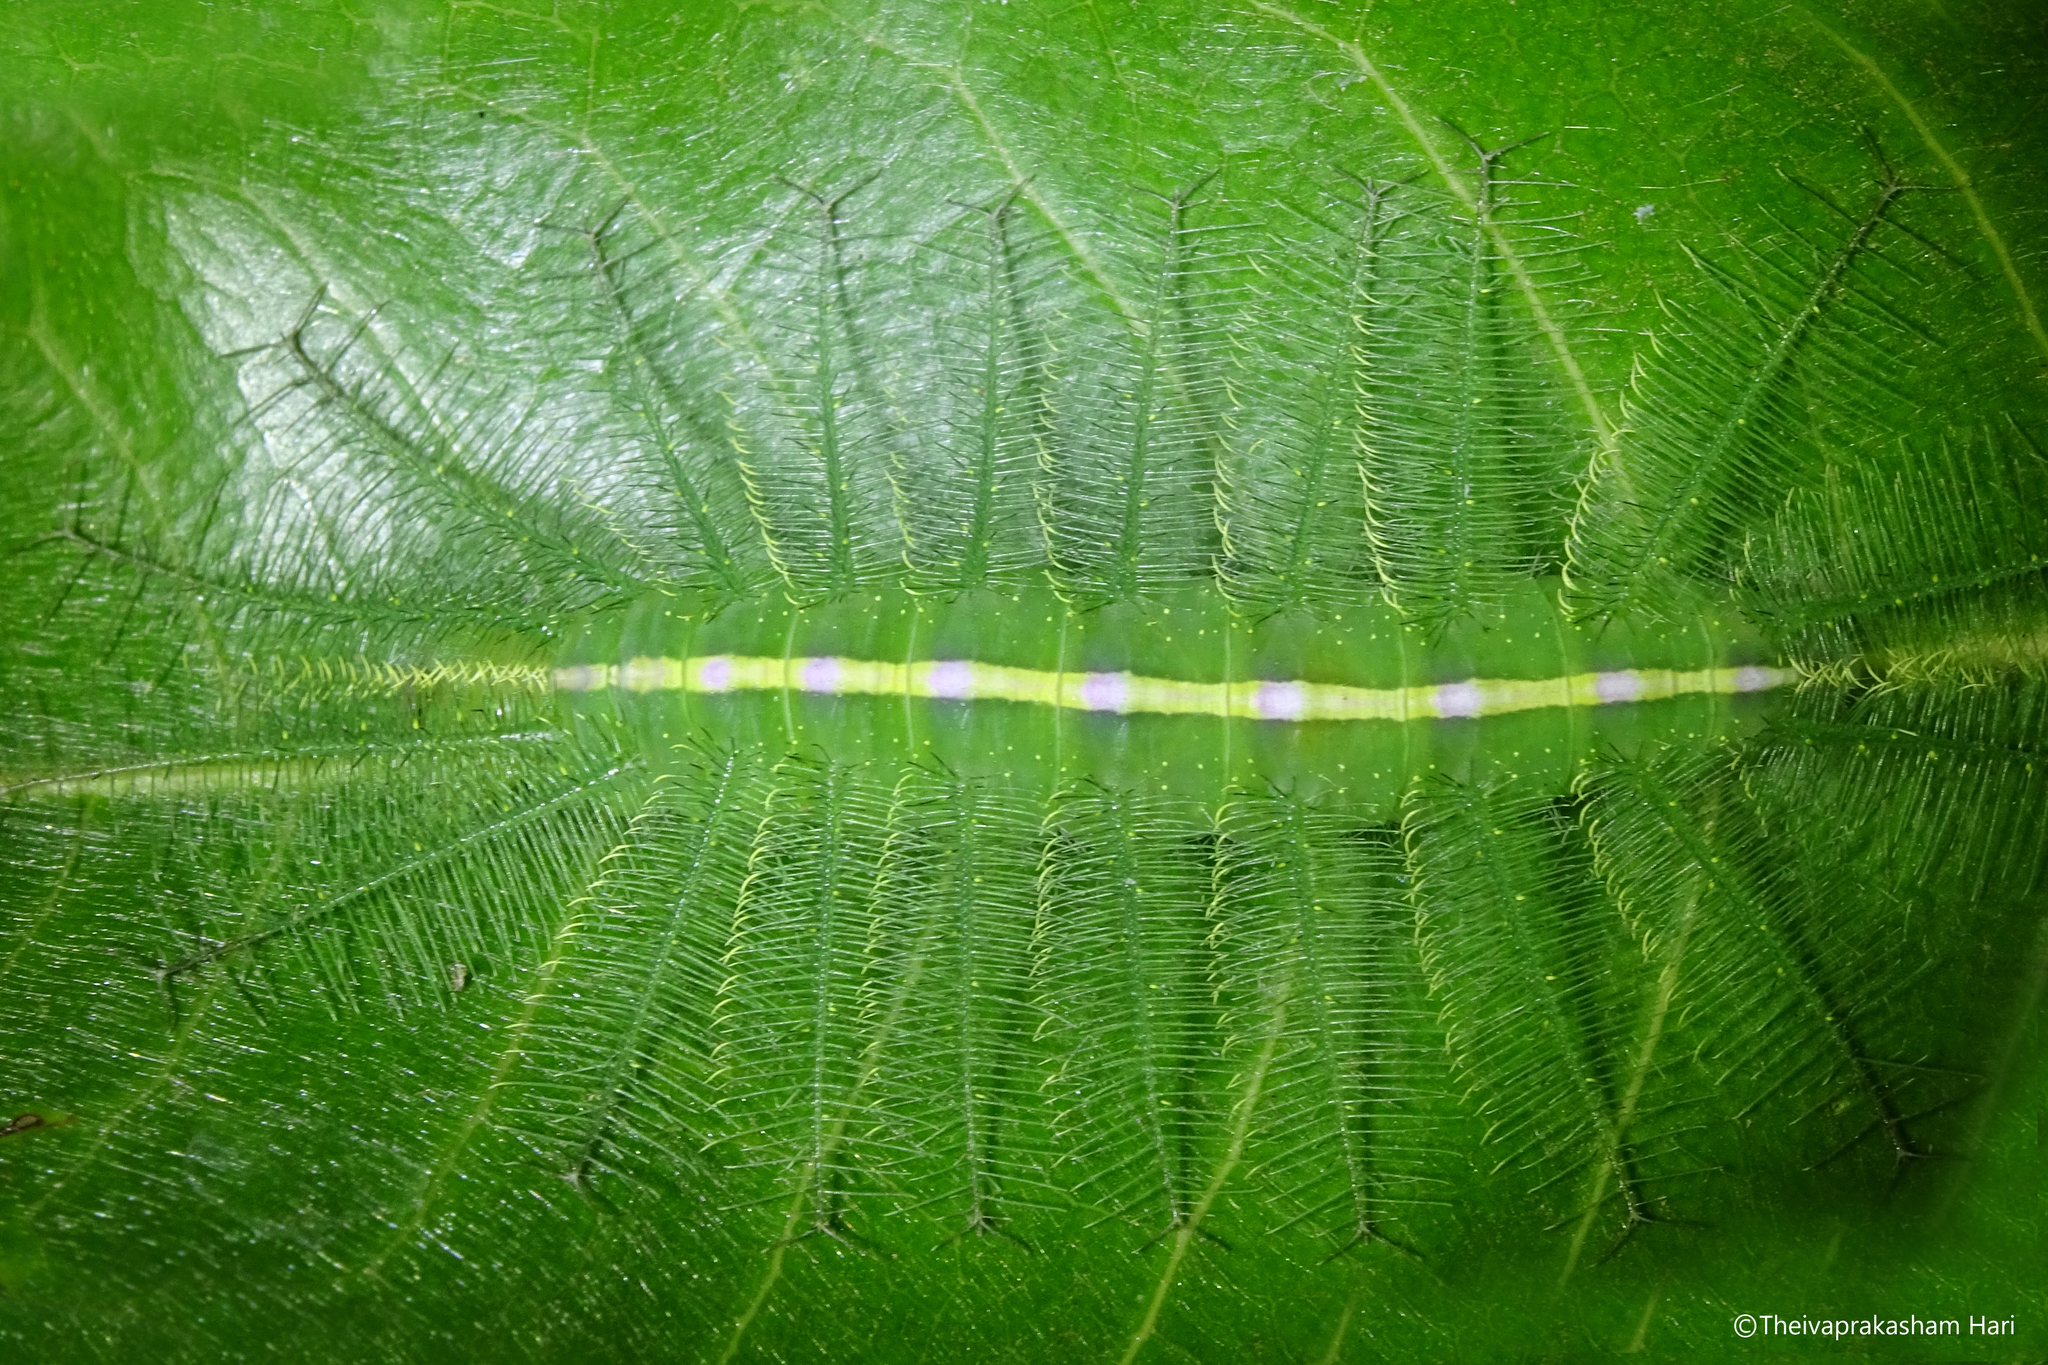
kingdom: Animalia
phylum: Arthropoda
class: Insecta
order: Lepidoptera
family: Nymphalidae
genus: Euthalia
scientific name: Euthalia aconthea
